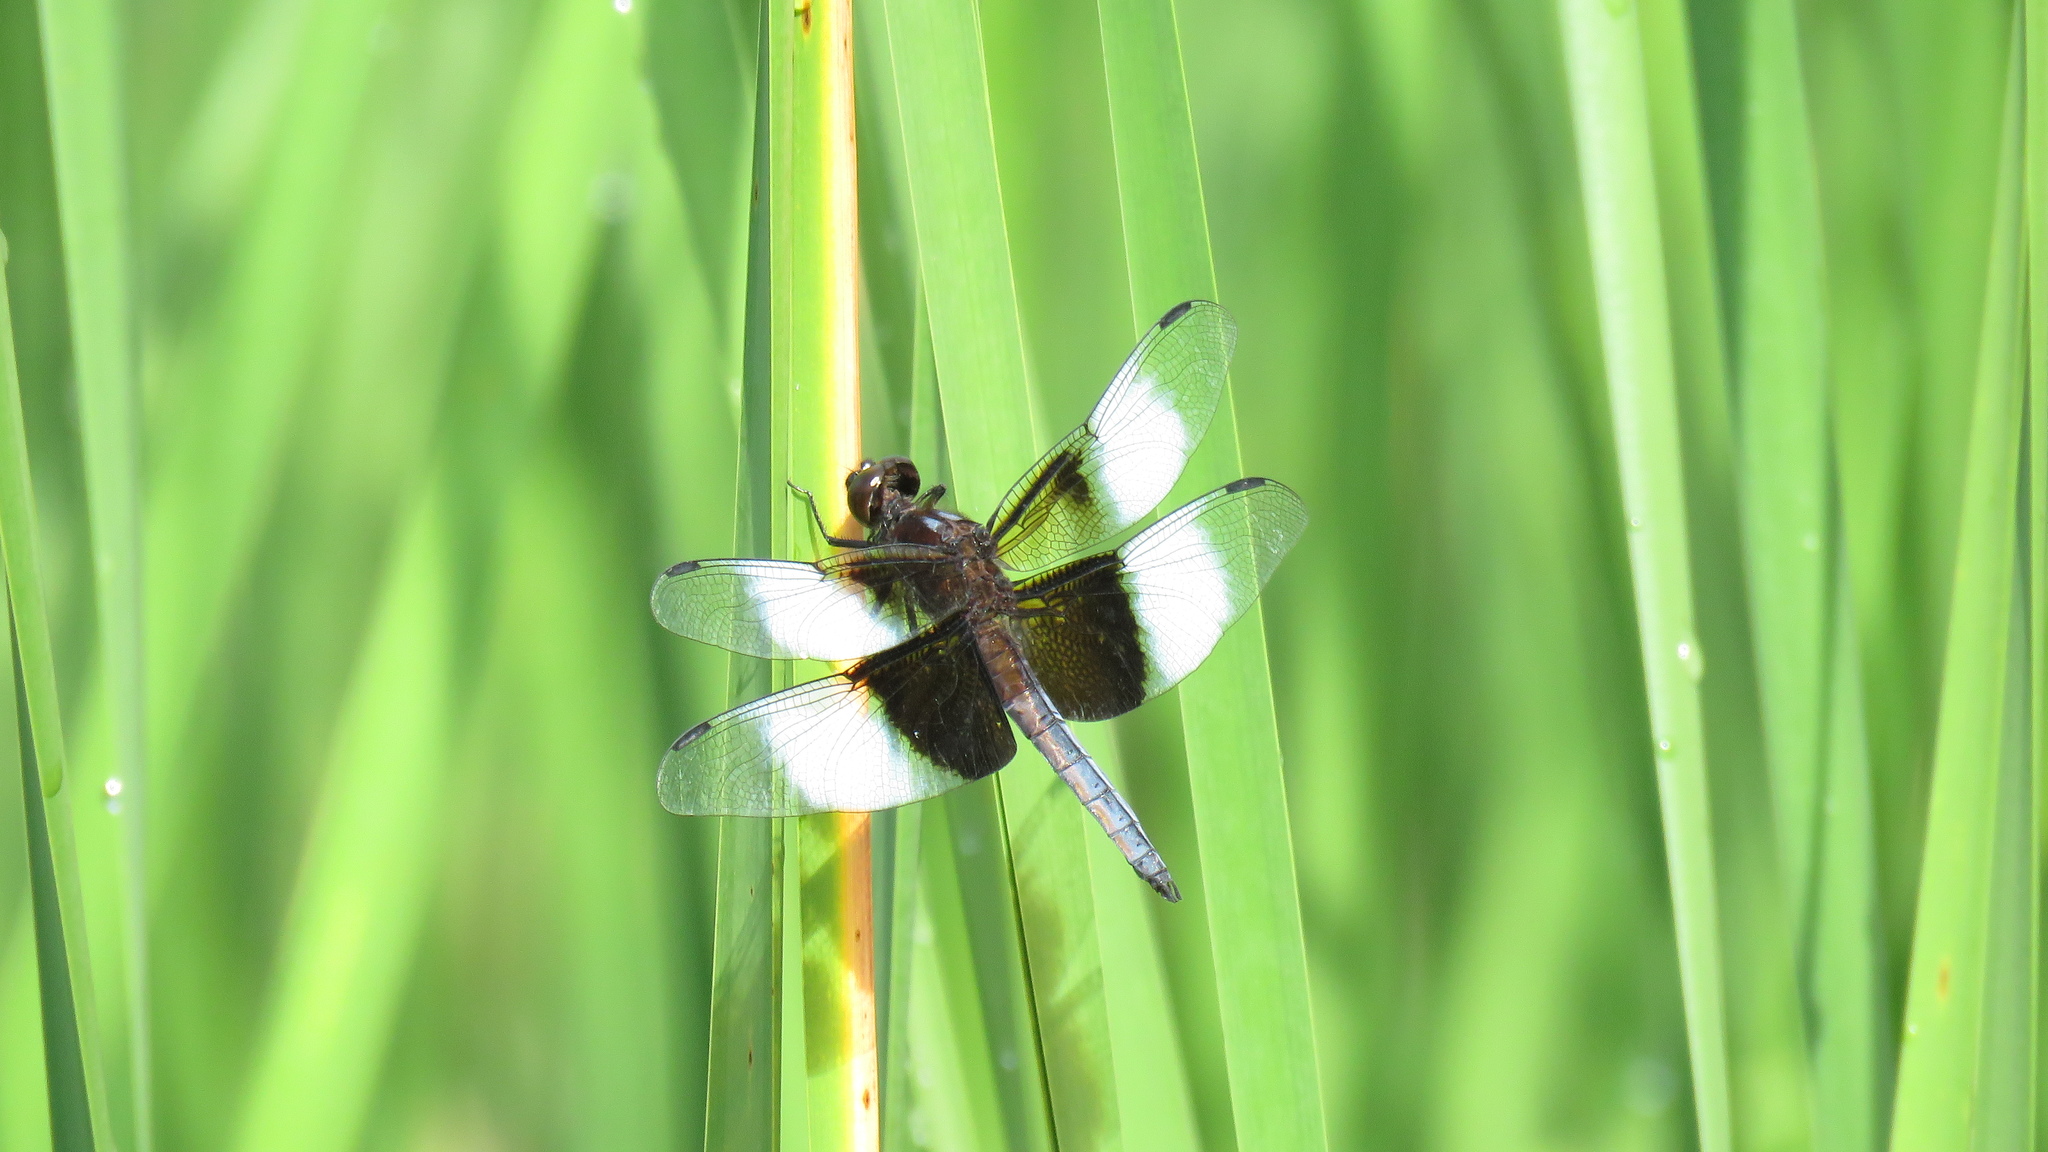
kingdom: Animalia
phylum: Arthropoda
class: Insecta
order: Odonata
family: Libellulidae
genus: Libellula
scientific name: Libellula luctuosa
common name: Widow skimmer
